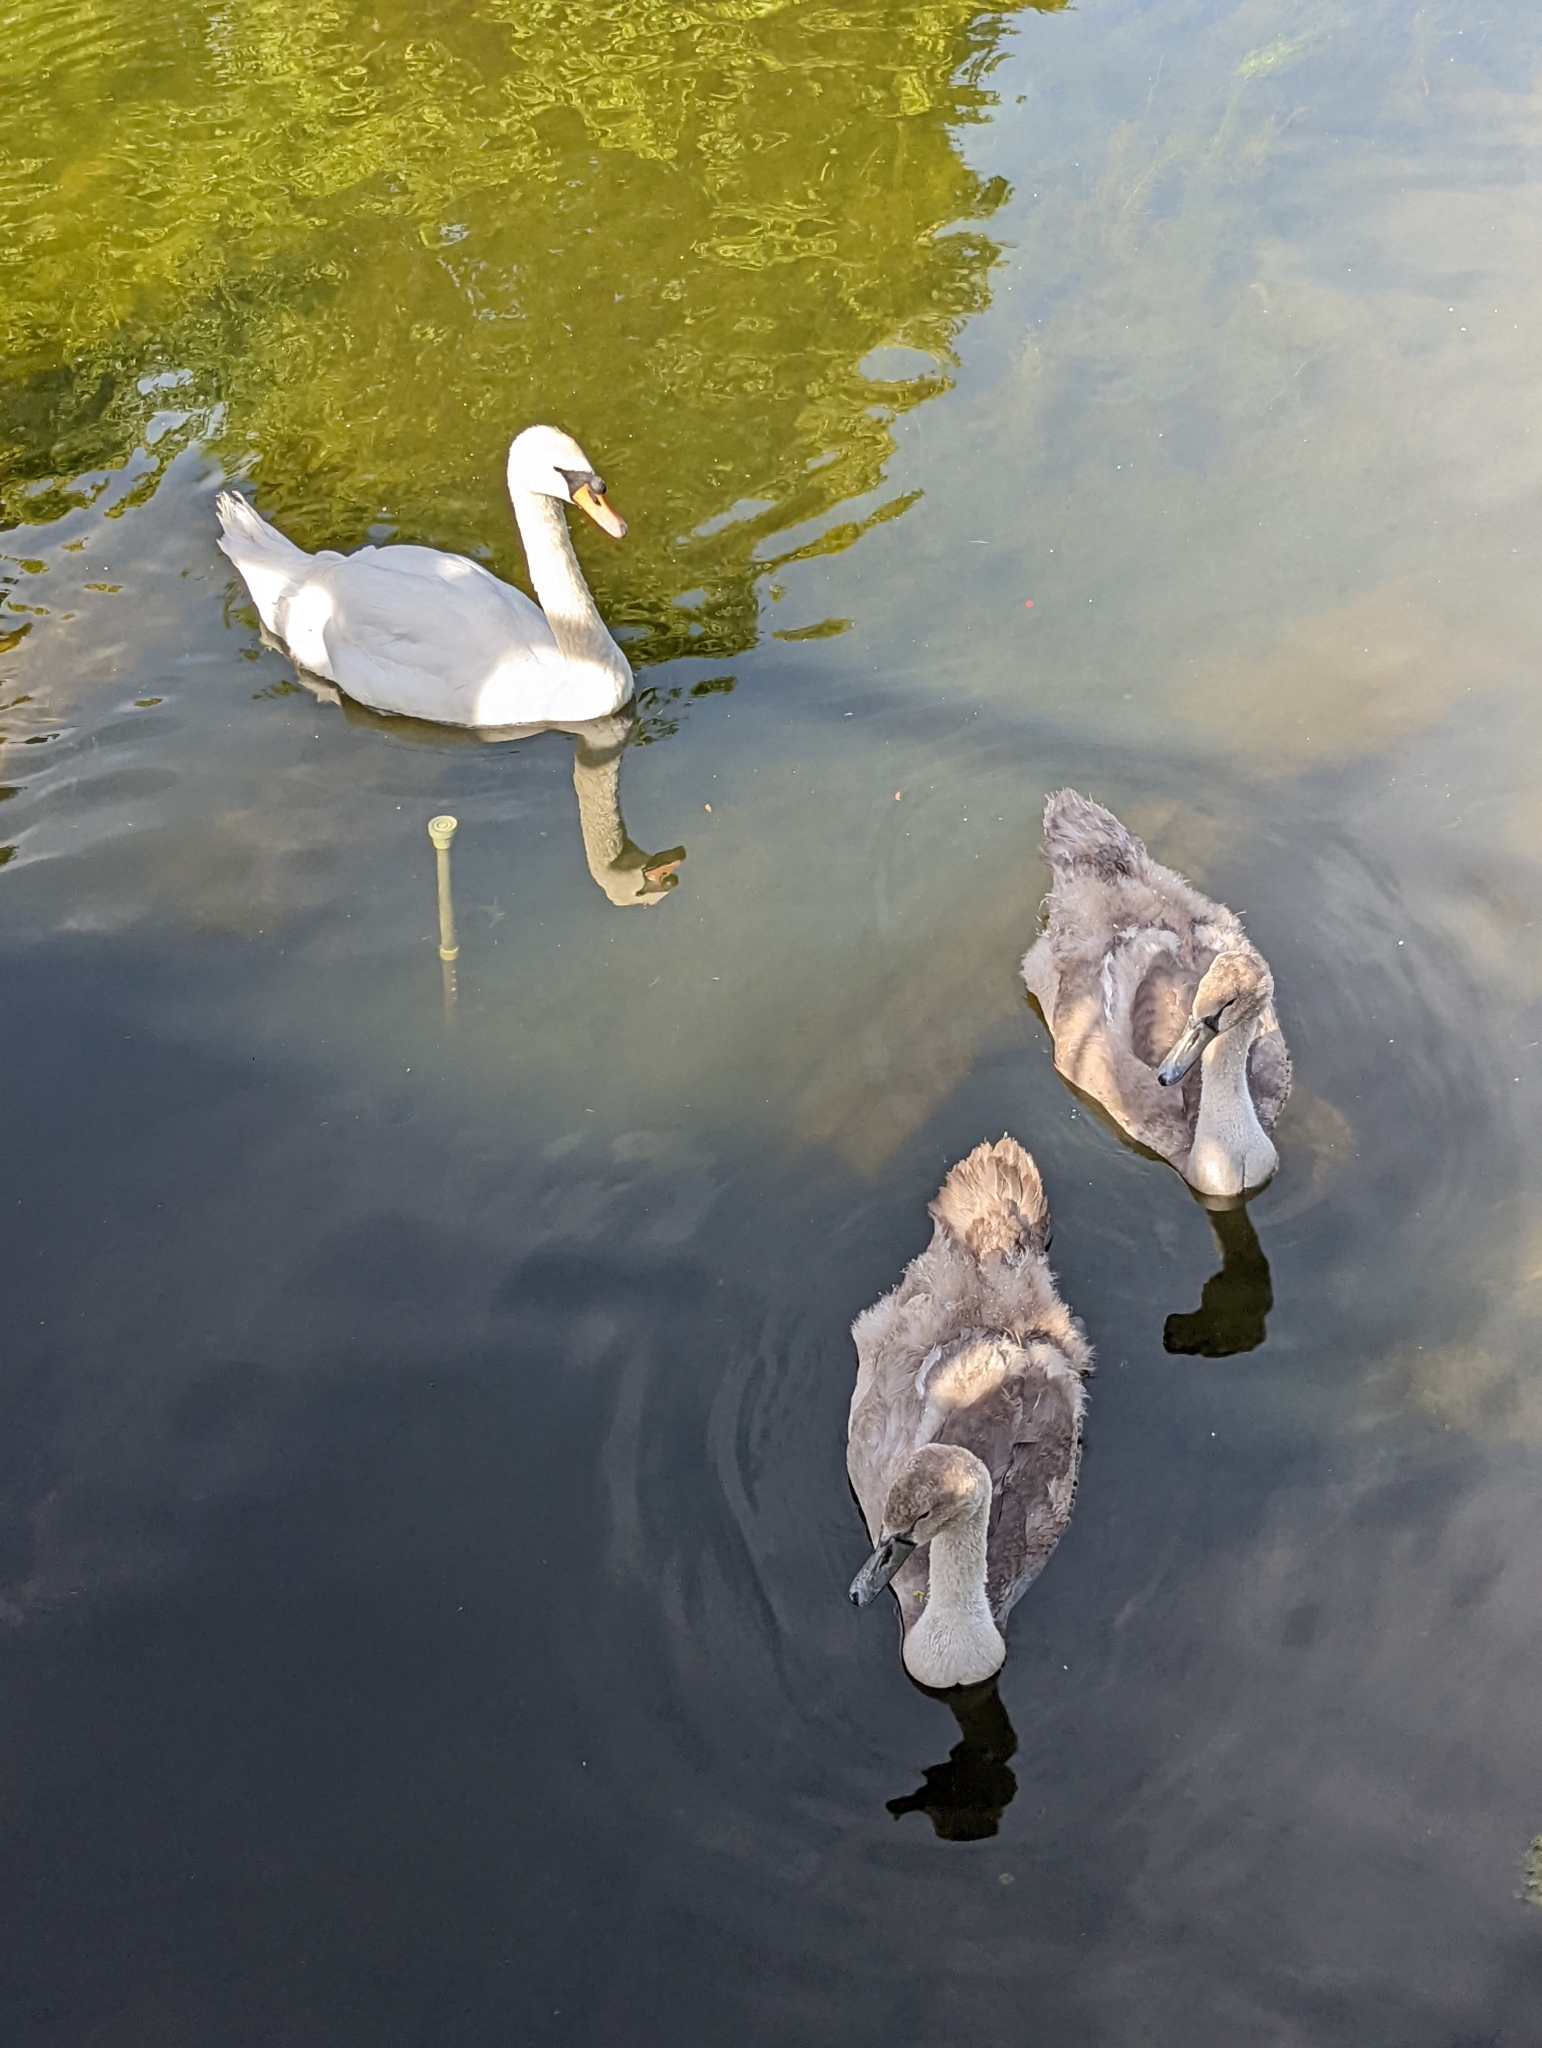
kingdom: Animalia
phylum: Chordata
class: Aves
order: Anseriformes
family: Anatidae
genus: Cygnus
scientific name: Cygnus olor
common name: Mute swan
